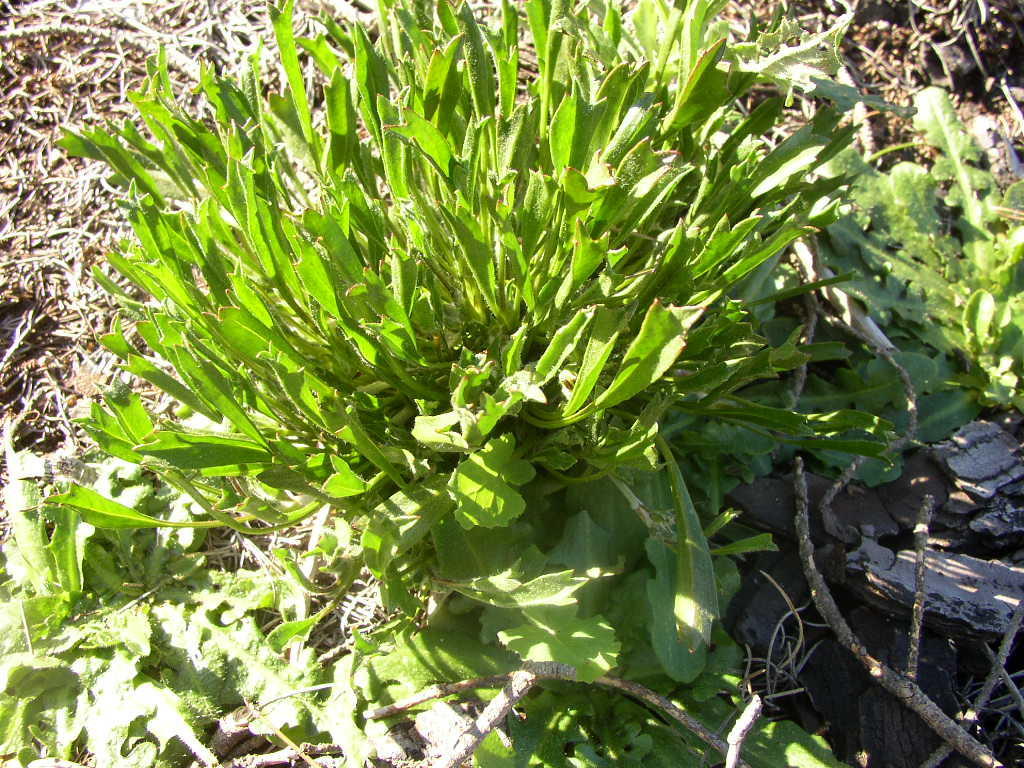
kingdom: Plantae
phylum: Tracheophyta
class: Magnoliopsida
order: Apiales
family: Apiaceae
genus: Centella
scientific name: Centella tridentata
